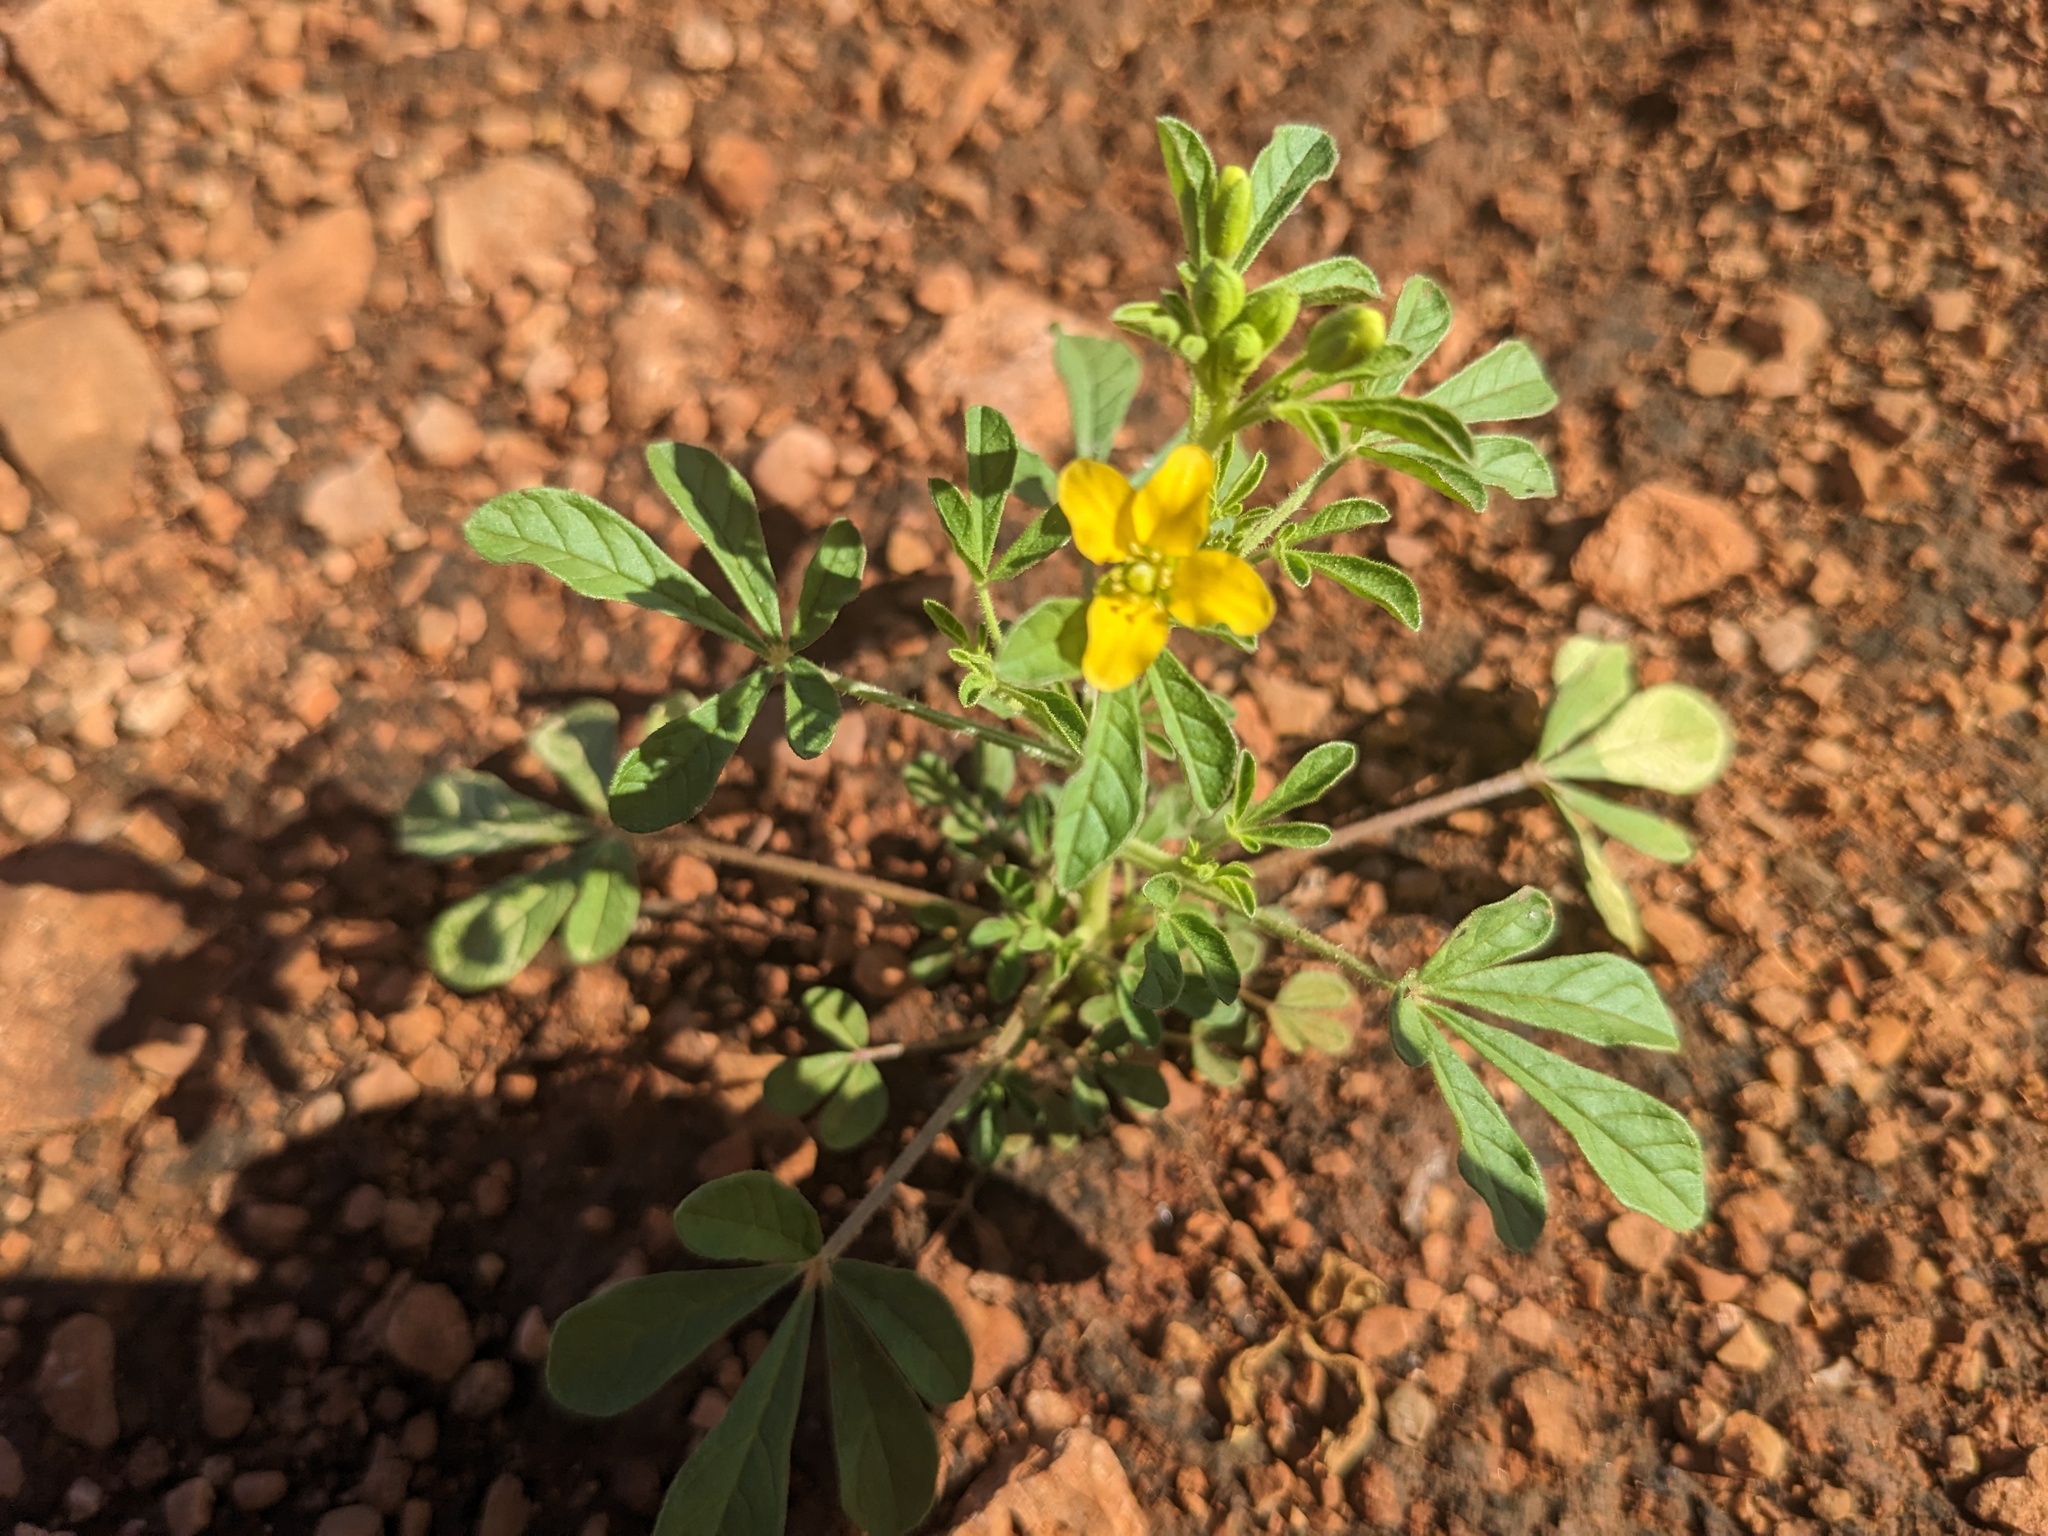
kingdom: Plantae
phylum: Tracheophyta
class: Magnoliopsida
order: Brassicales
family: Cleomaceae
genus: Arivela
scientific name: Arivela viscosa
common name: Asian spiderflower
